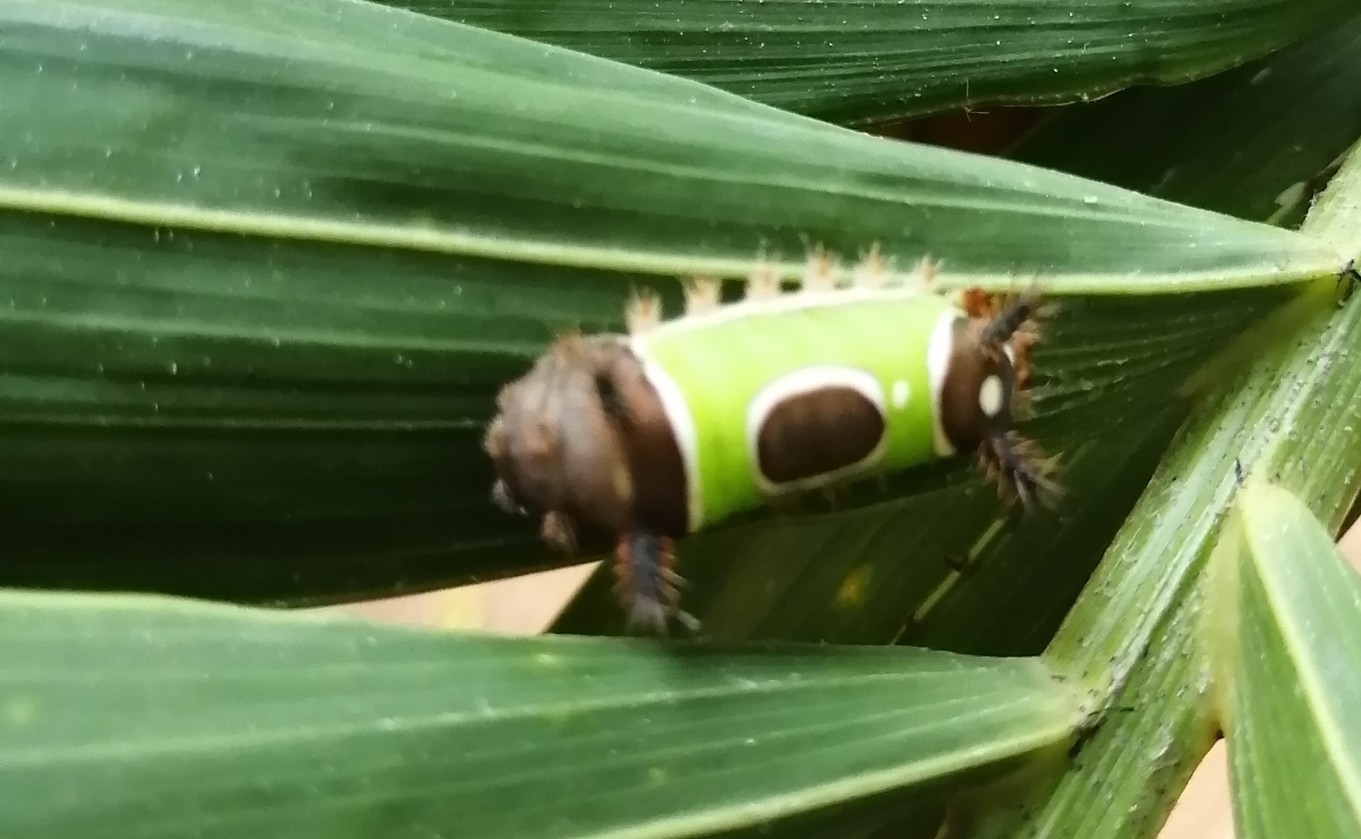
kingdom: Animalia
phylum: Arthropoda
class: Insecta
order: Lepidoptera
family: Limacodidae
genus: Acharia
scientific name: Acharia stimulea
